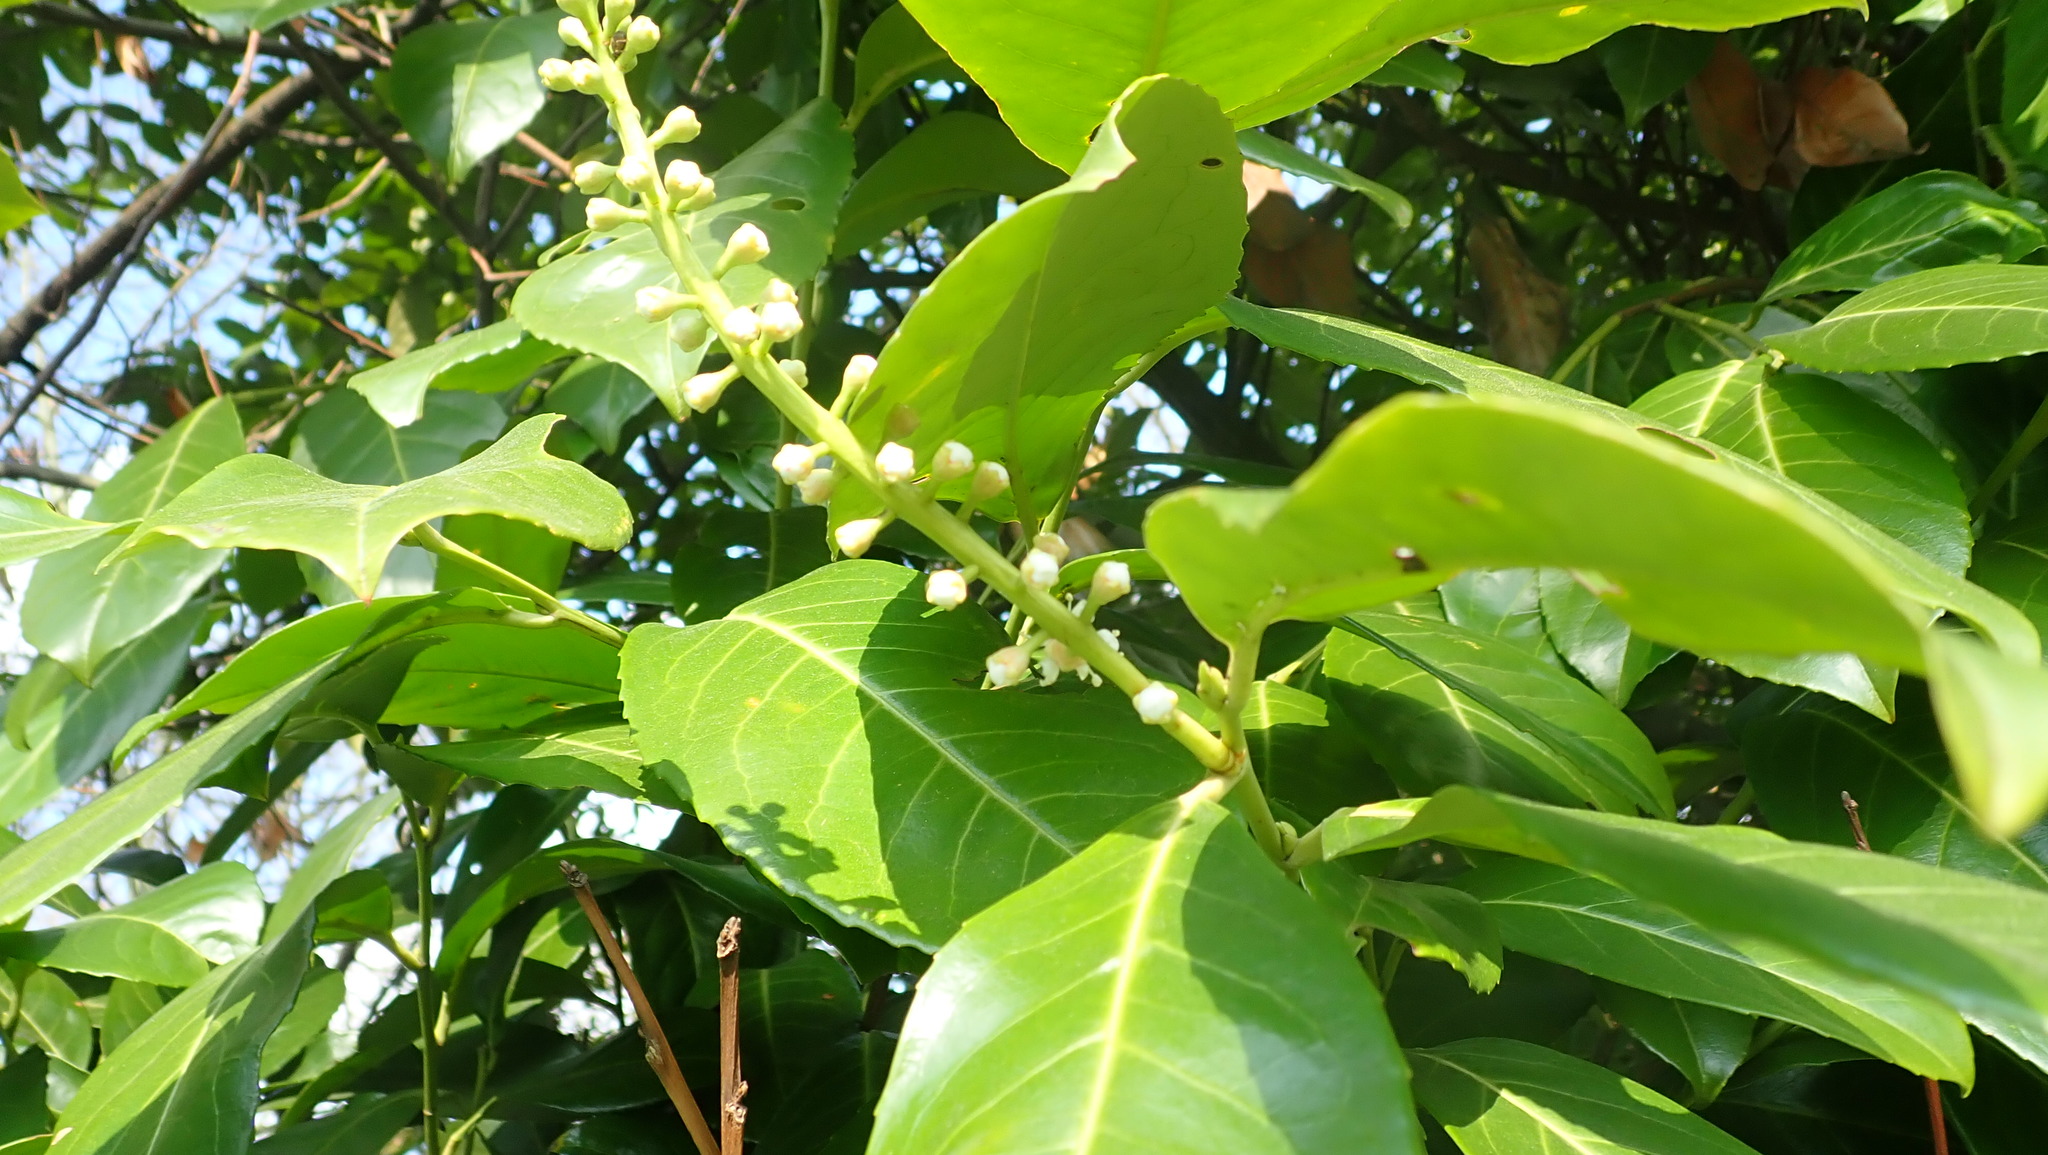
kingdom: Plantae
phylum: Tracheophyta
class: Magnoliopsida
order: Rosales
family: Rosaceae
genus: Prunus
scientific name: Prunus laurocerasus
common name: Cherry laurel
